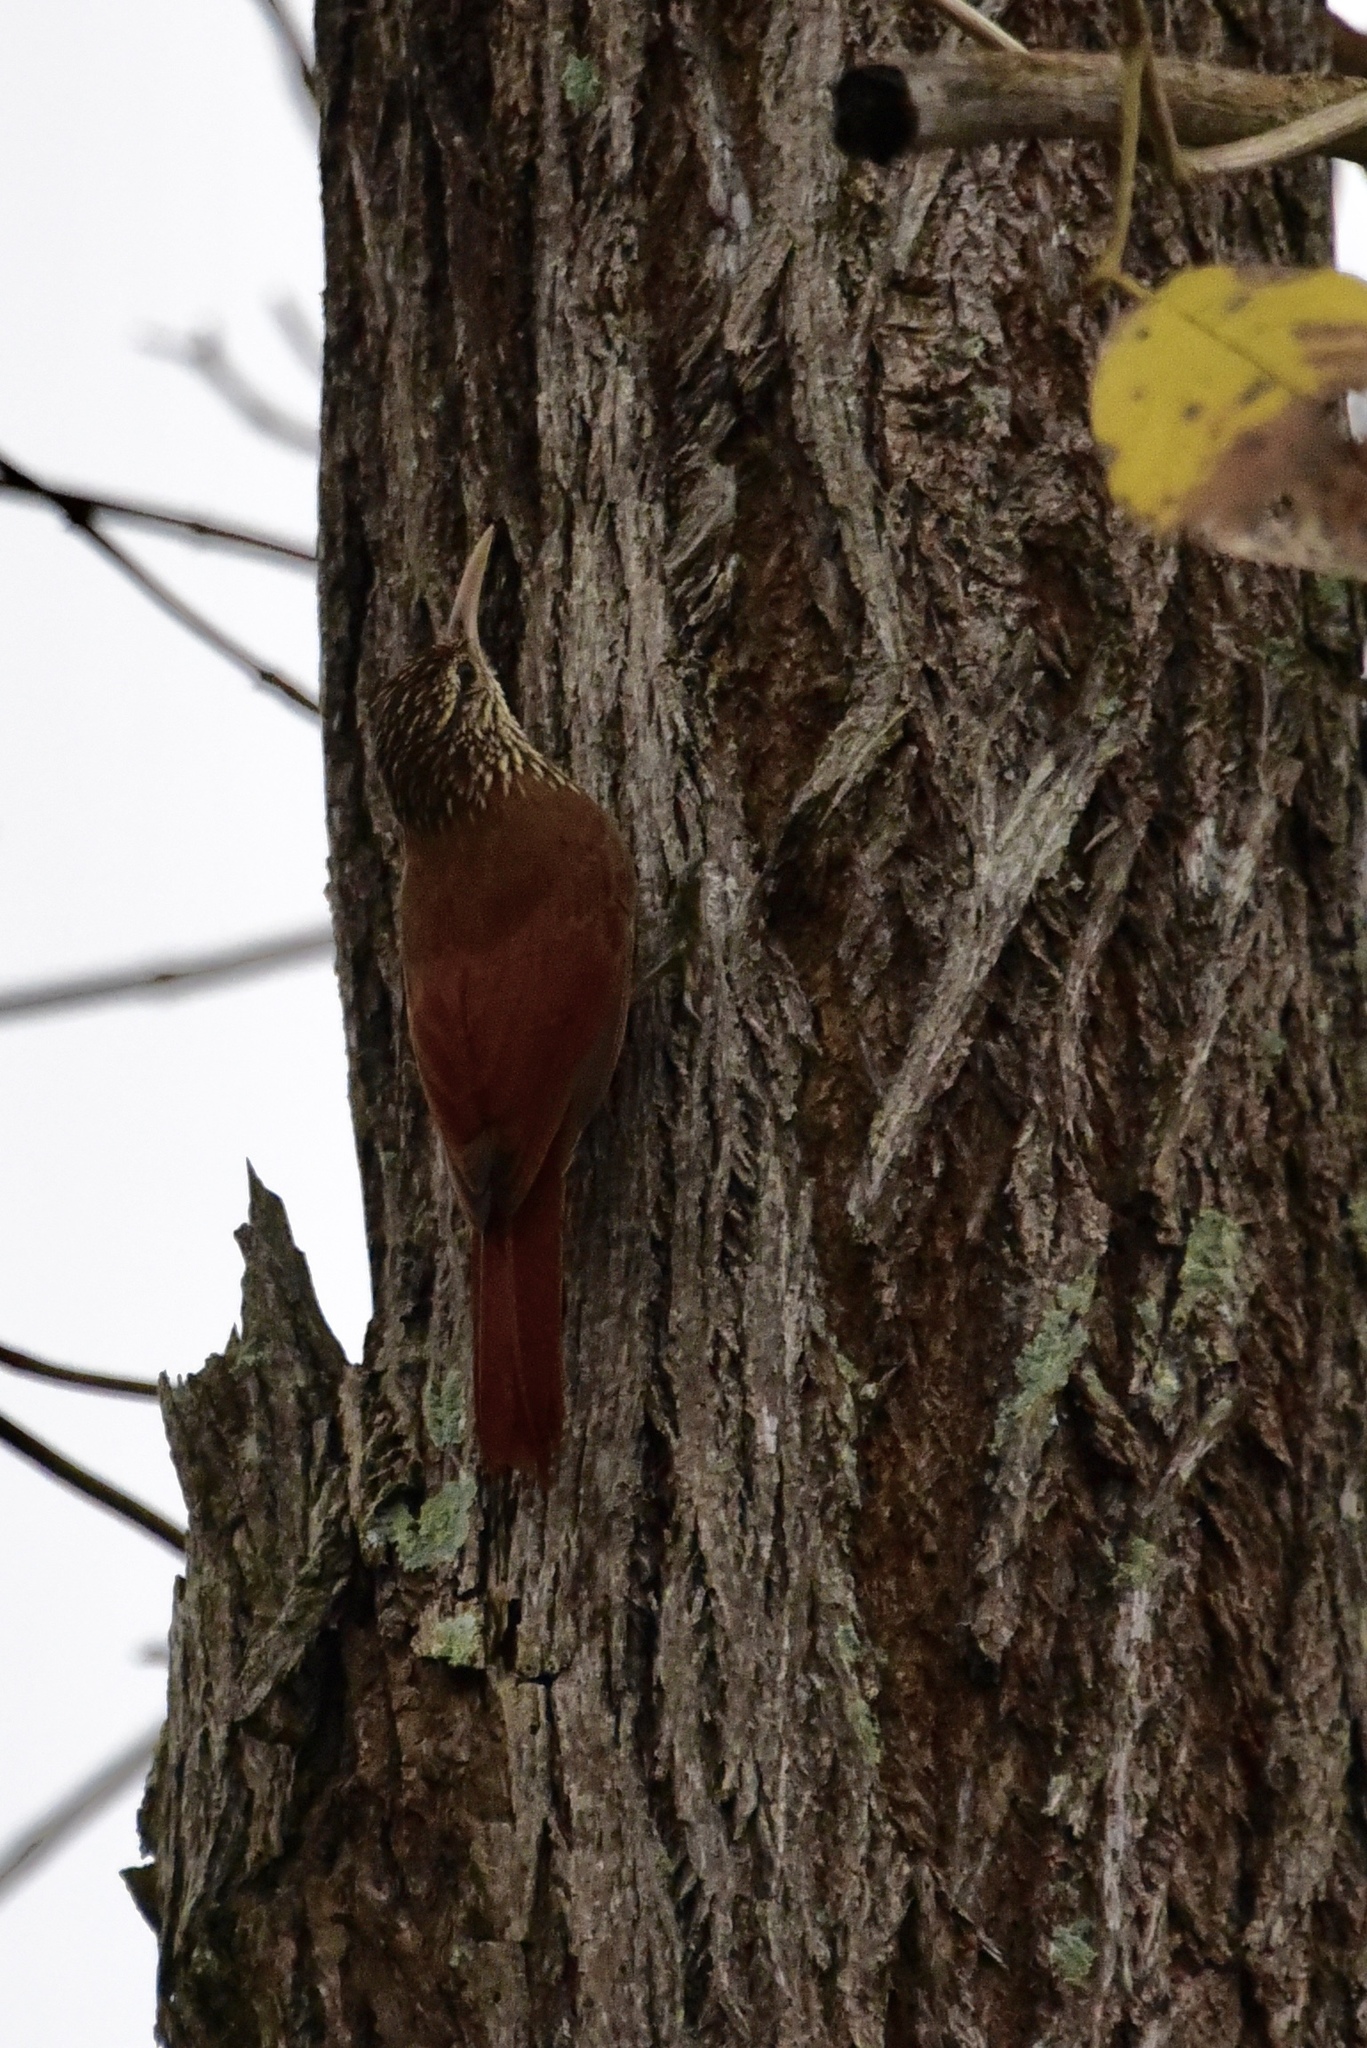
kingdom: Animalia
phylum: Chordata
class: Aves
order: Passeriformes
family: Furnariidae
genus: Lepidocolaptes
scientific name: Lepidocolaptes souleyetii
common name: Streak-headed woodcreeper
